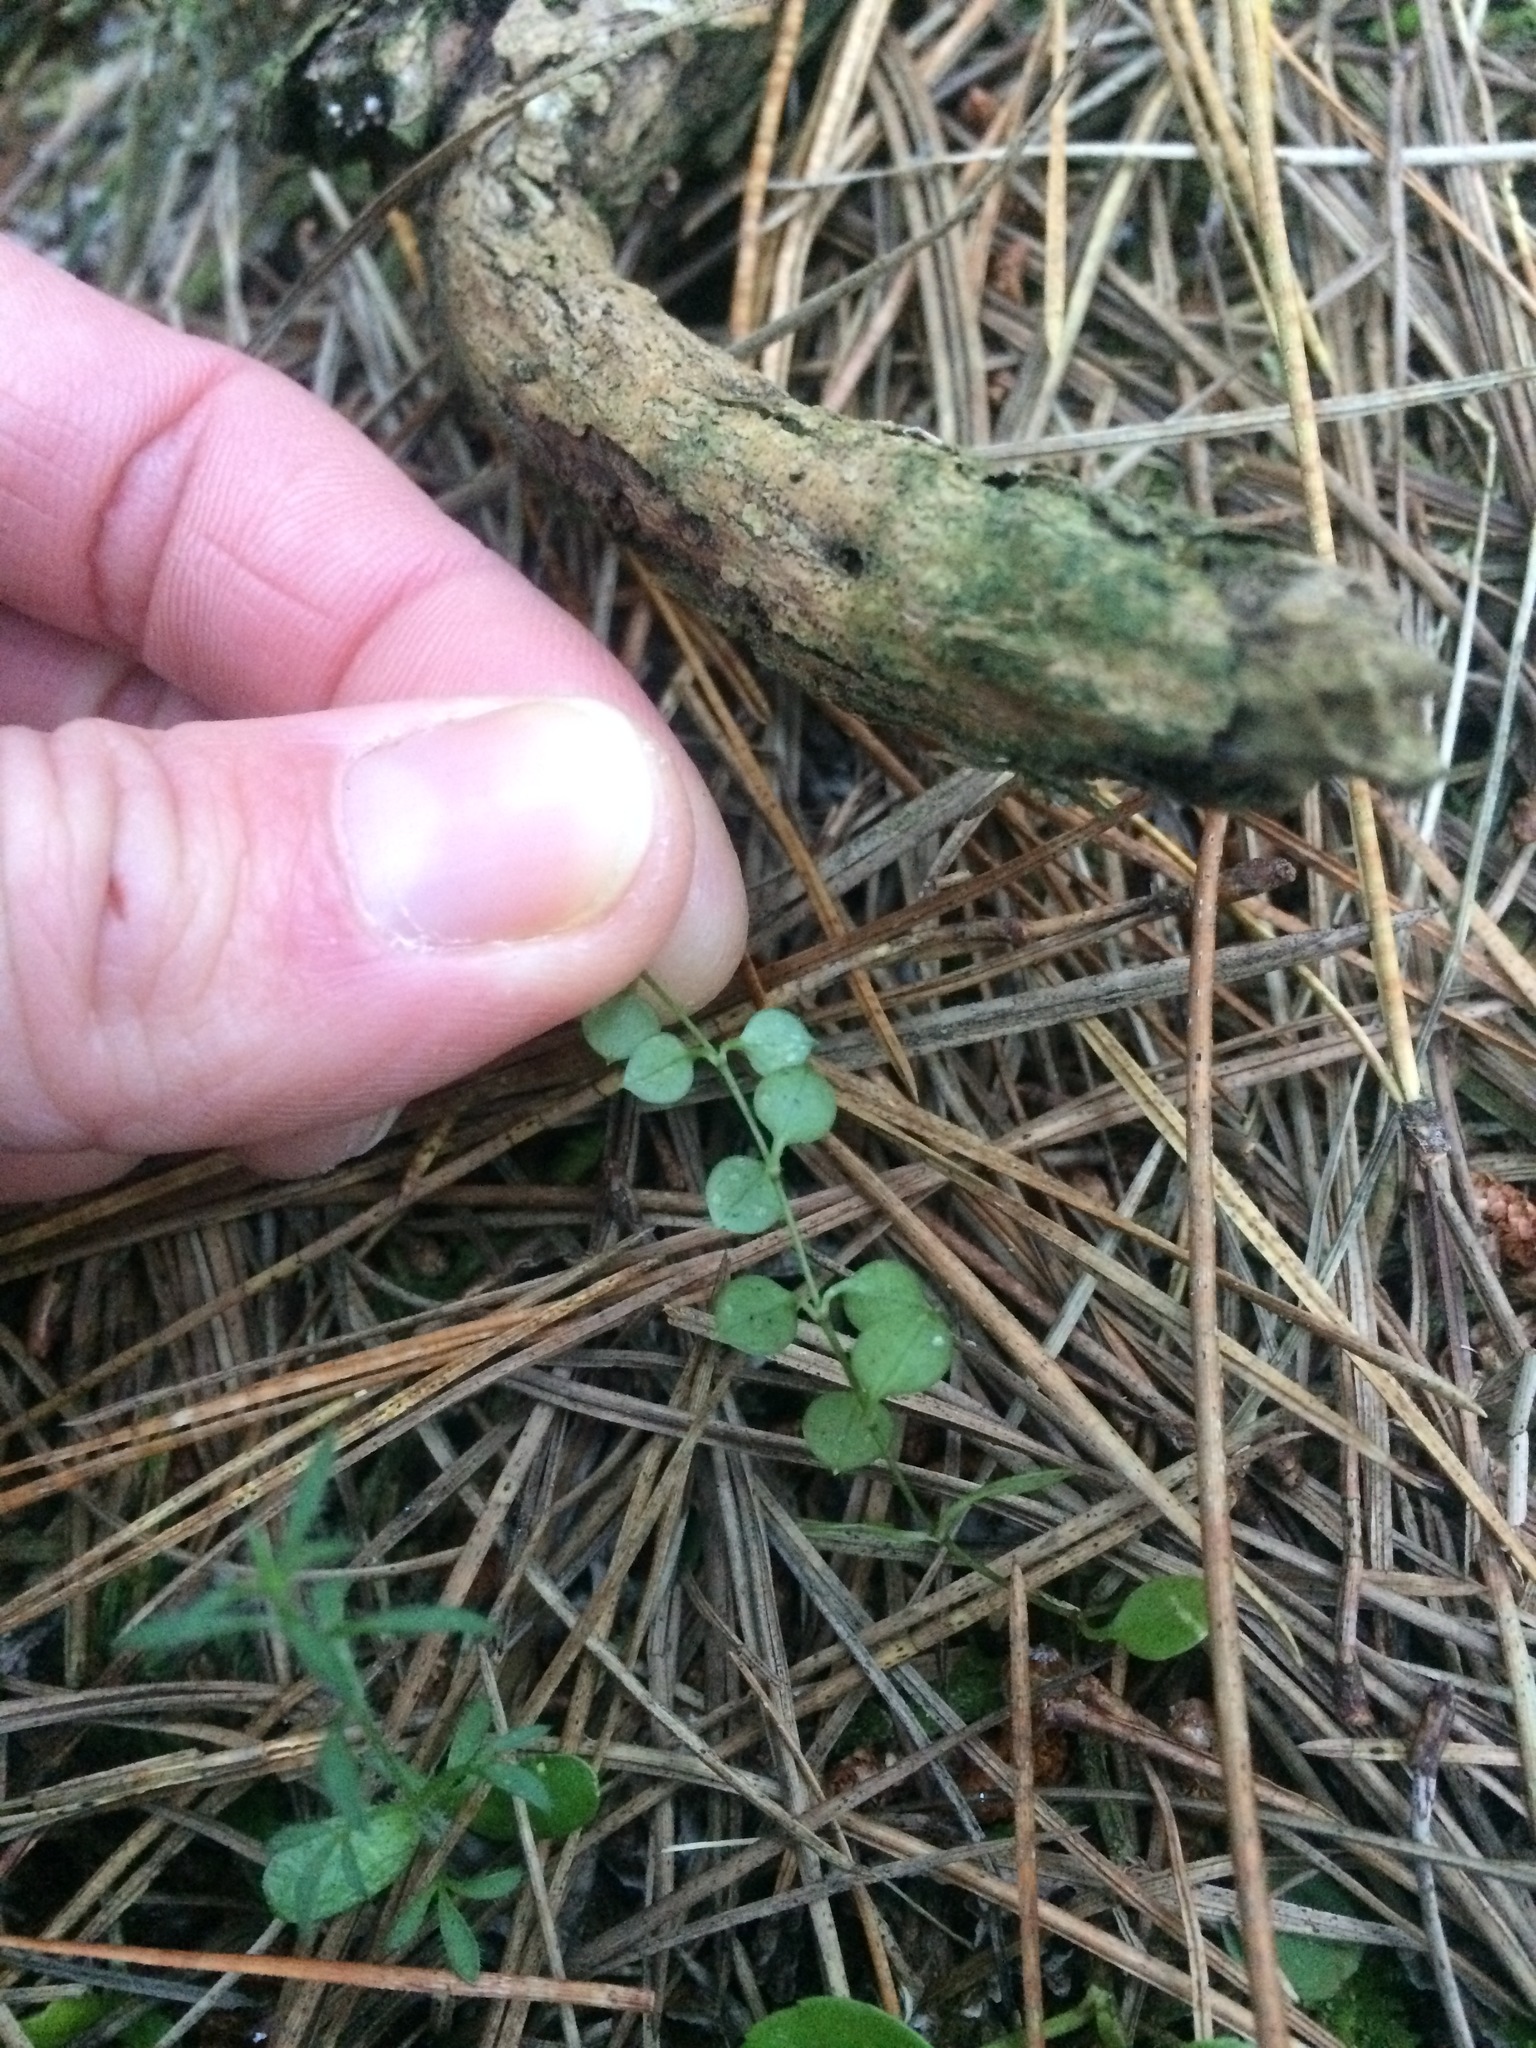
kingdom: Plantae
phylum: Tracheophyta
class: Magnoliopsida
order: Caryophyllales
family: Caryophyllaceae
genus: Stellaria
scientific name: Stellaria parviflora
